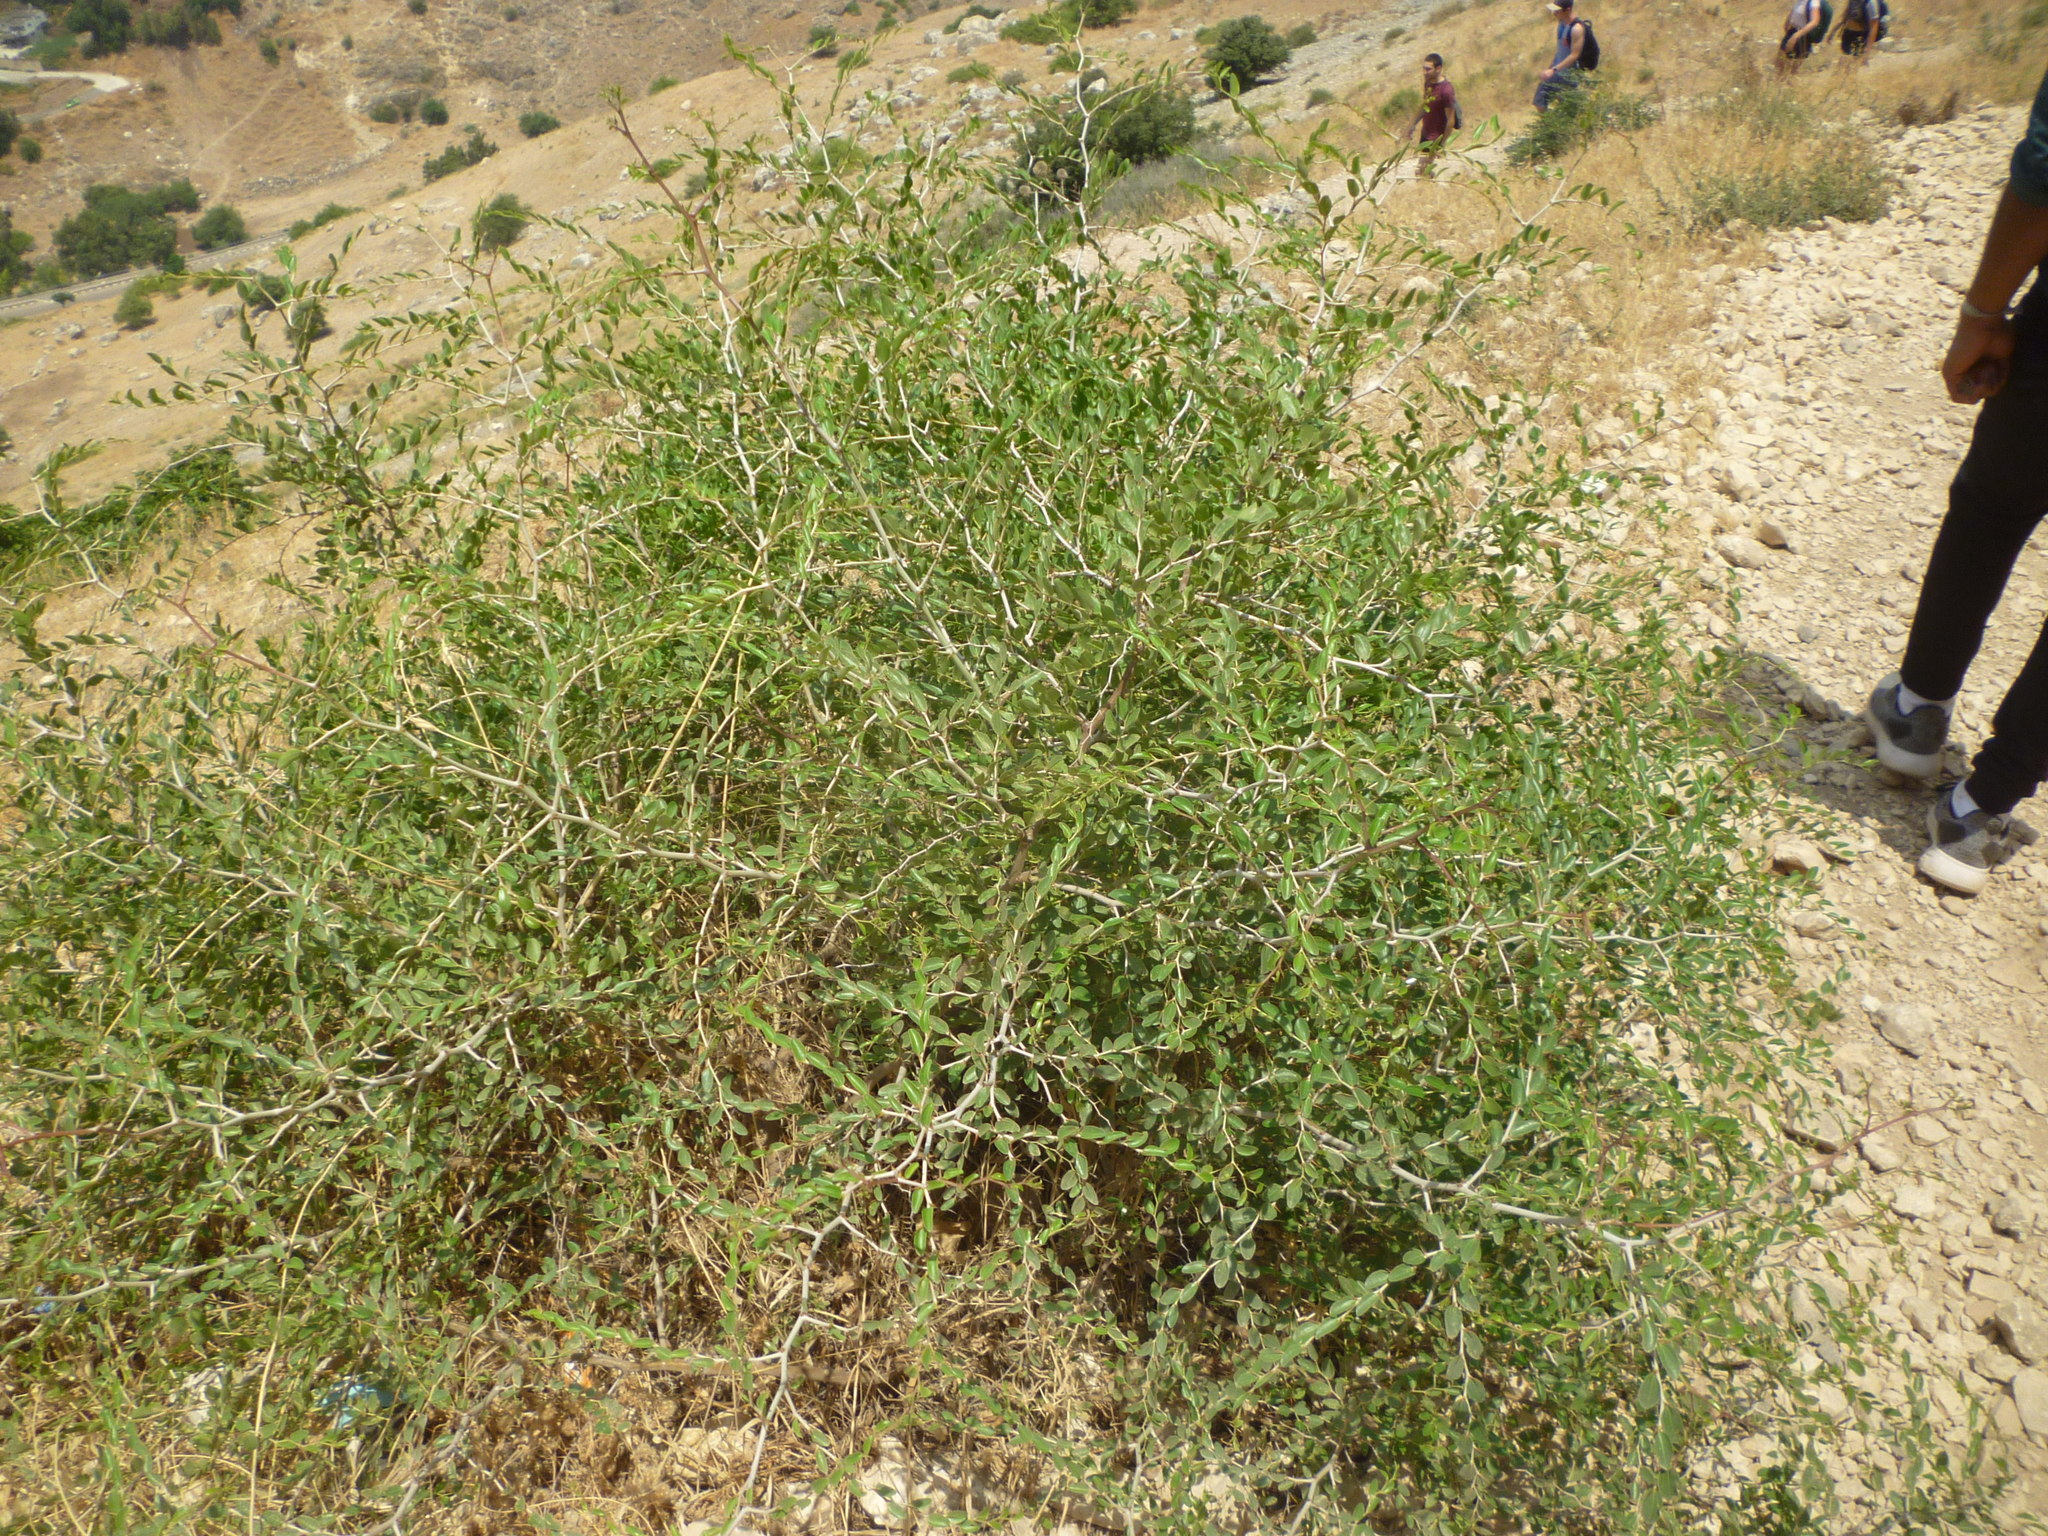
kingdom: Plantae
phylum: Tracheophyta
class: Magnoliopsida
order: Rosales
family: Rhamnaceae
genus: Ziziphus
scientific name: Ziziphus lotus
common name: Lotus
